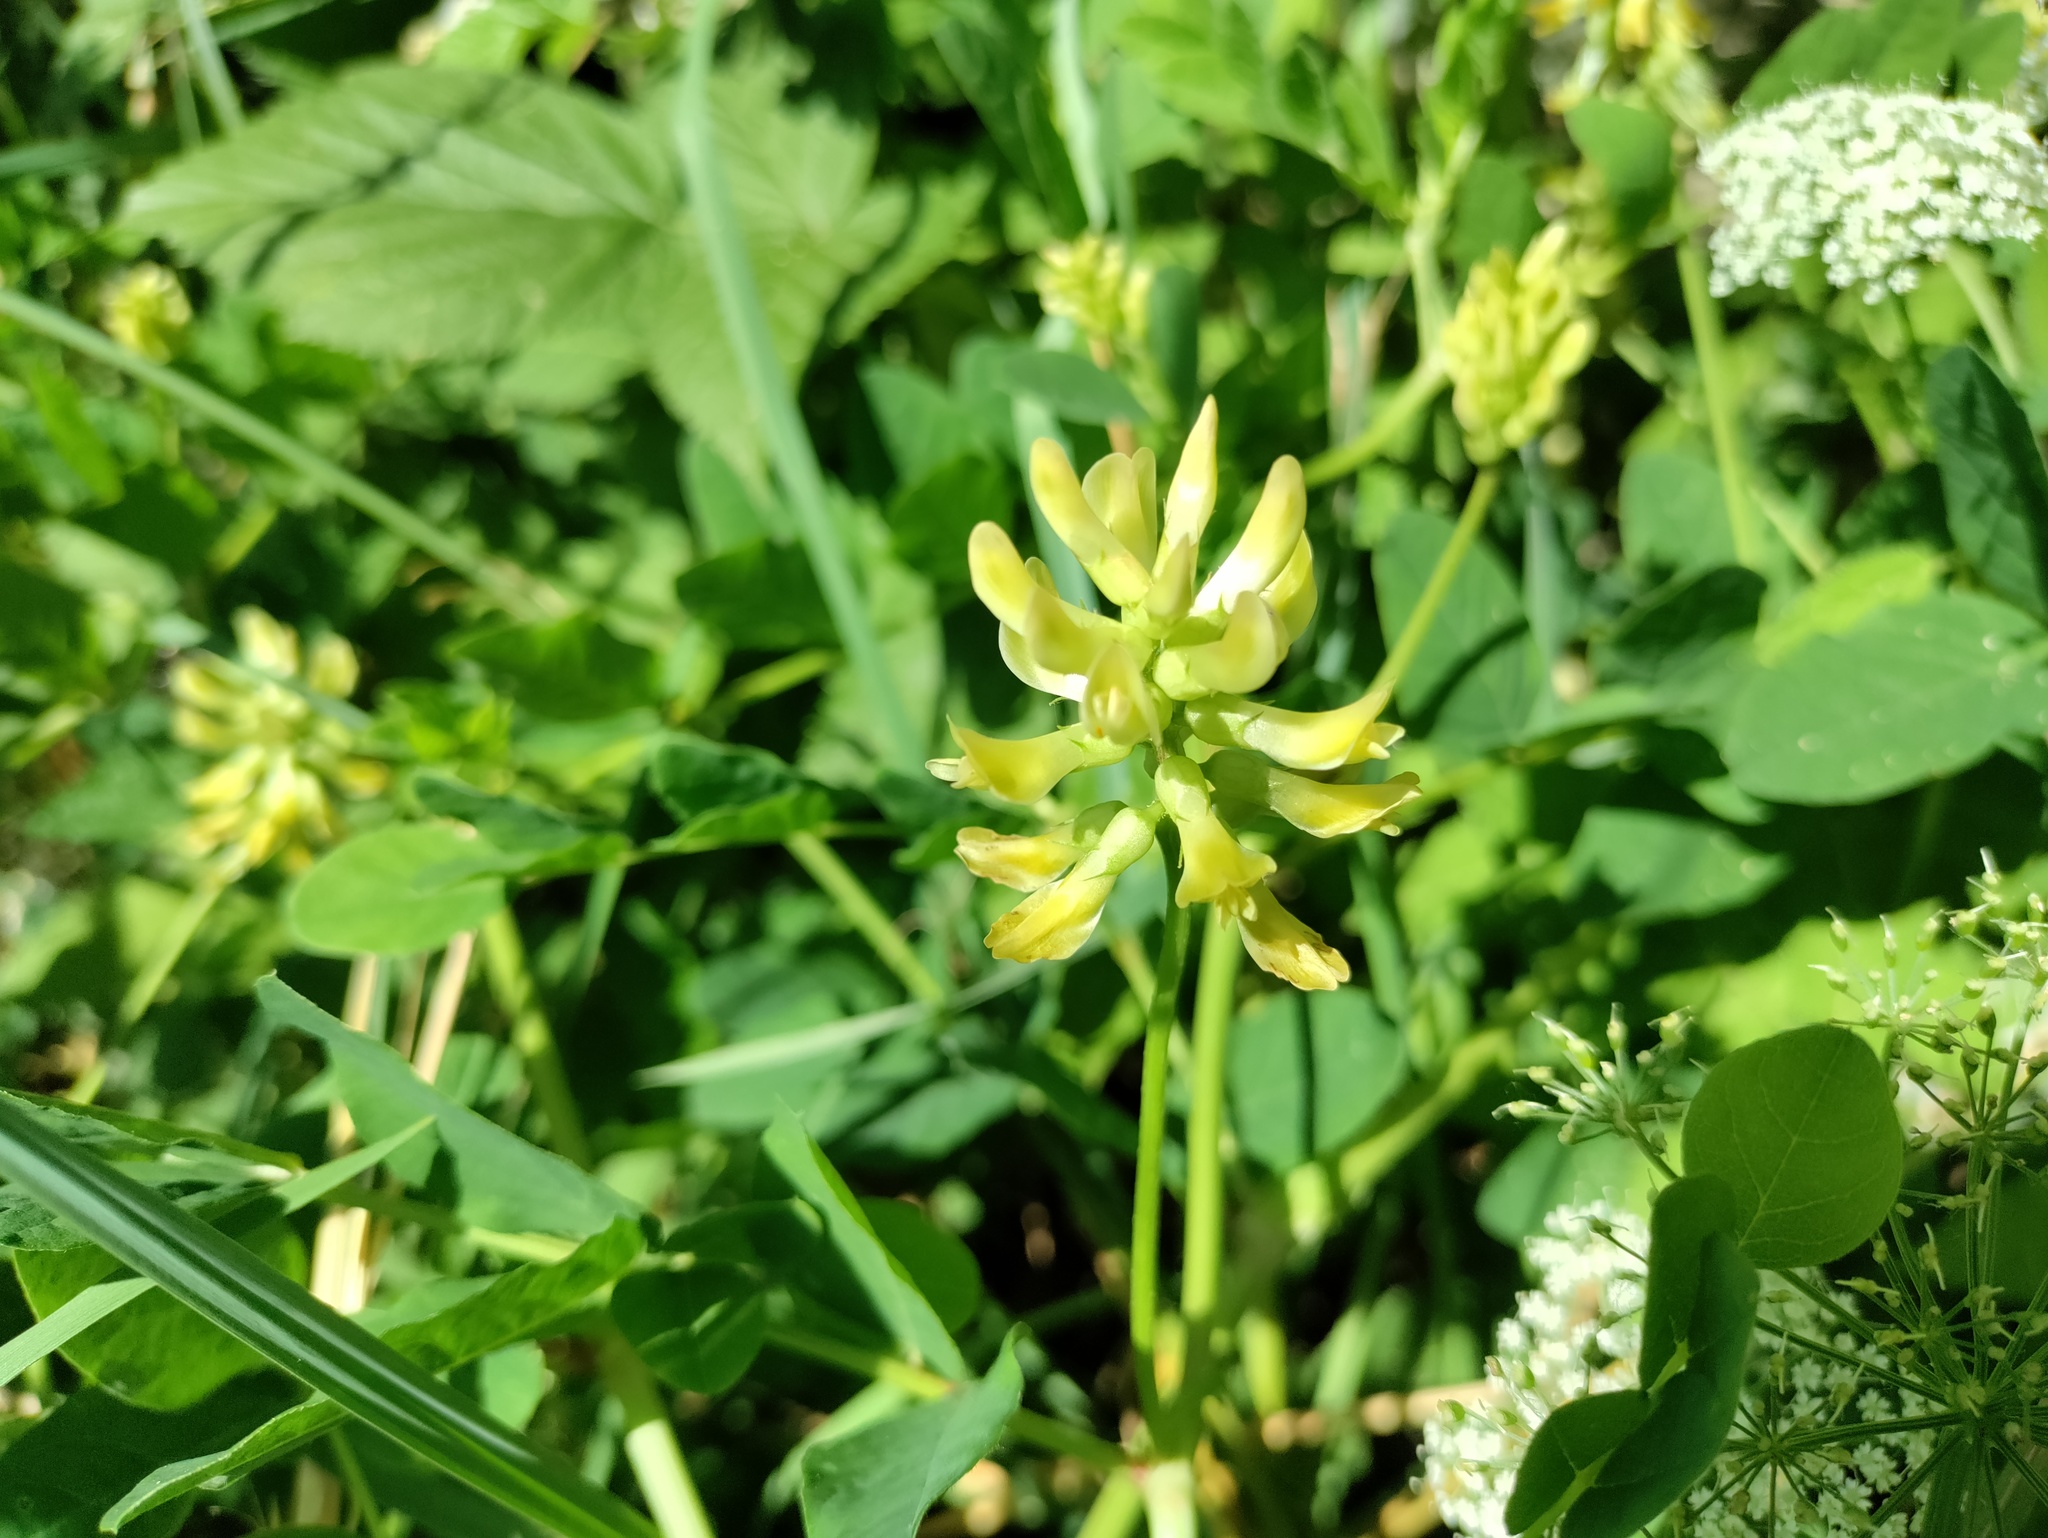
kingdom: Plantae
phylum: Tracheophyta
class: Magnoliopsida
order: Fabales
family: Fabaceae
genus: Astragalus
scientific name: Astragalus glycyphyllos
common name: Wild liquorice
